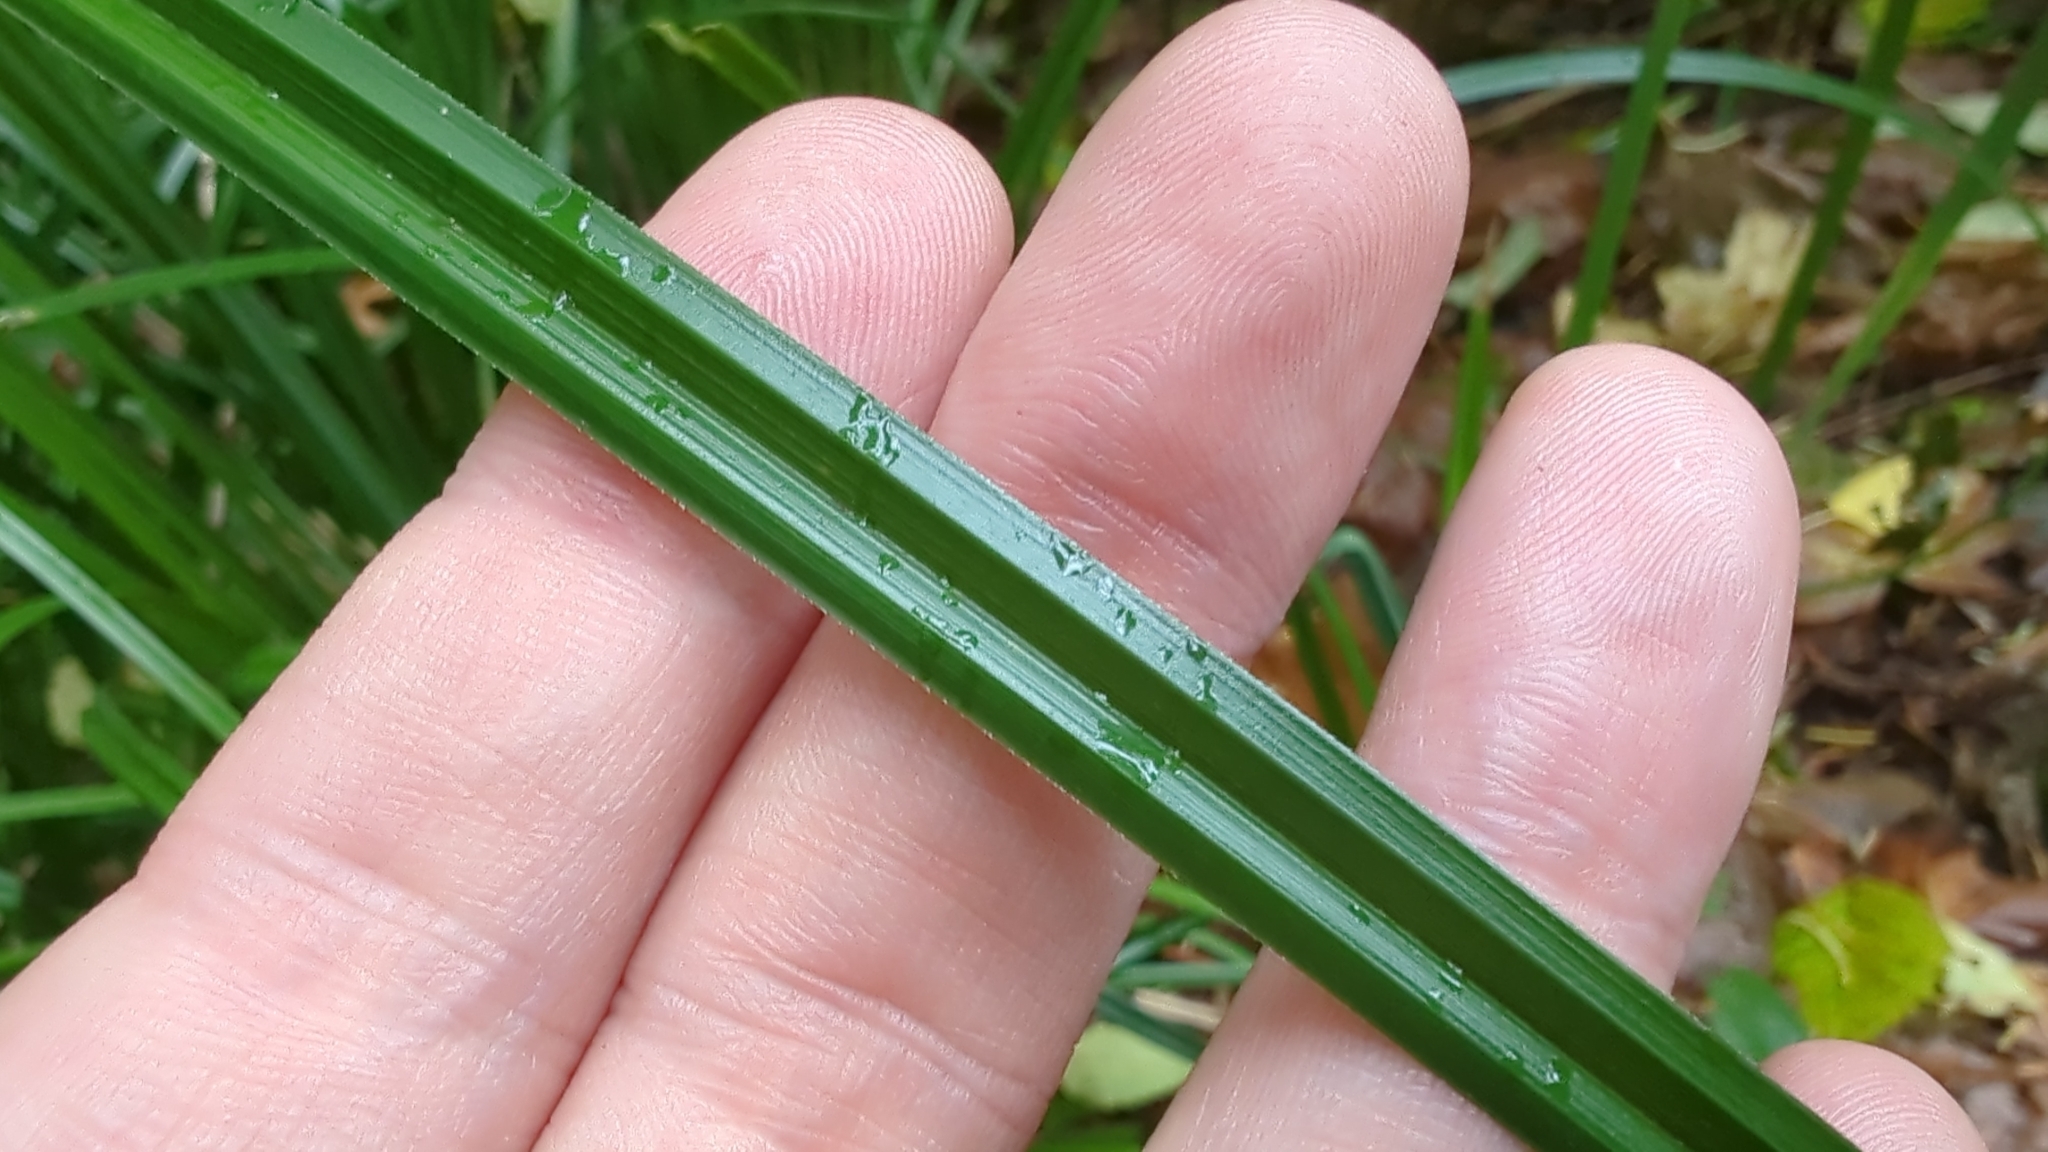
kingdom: Plantae
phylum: Tracheophyta
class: Liliopsida
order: Poales
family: Cyperaceae
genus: Carex
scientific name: Carex obnupta
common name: Slough sedge
